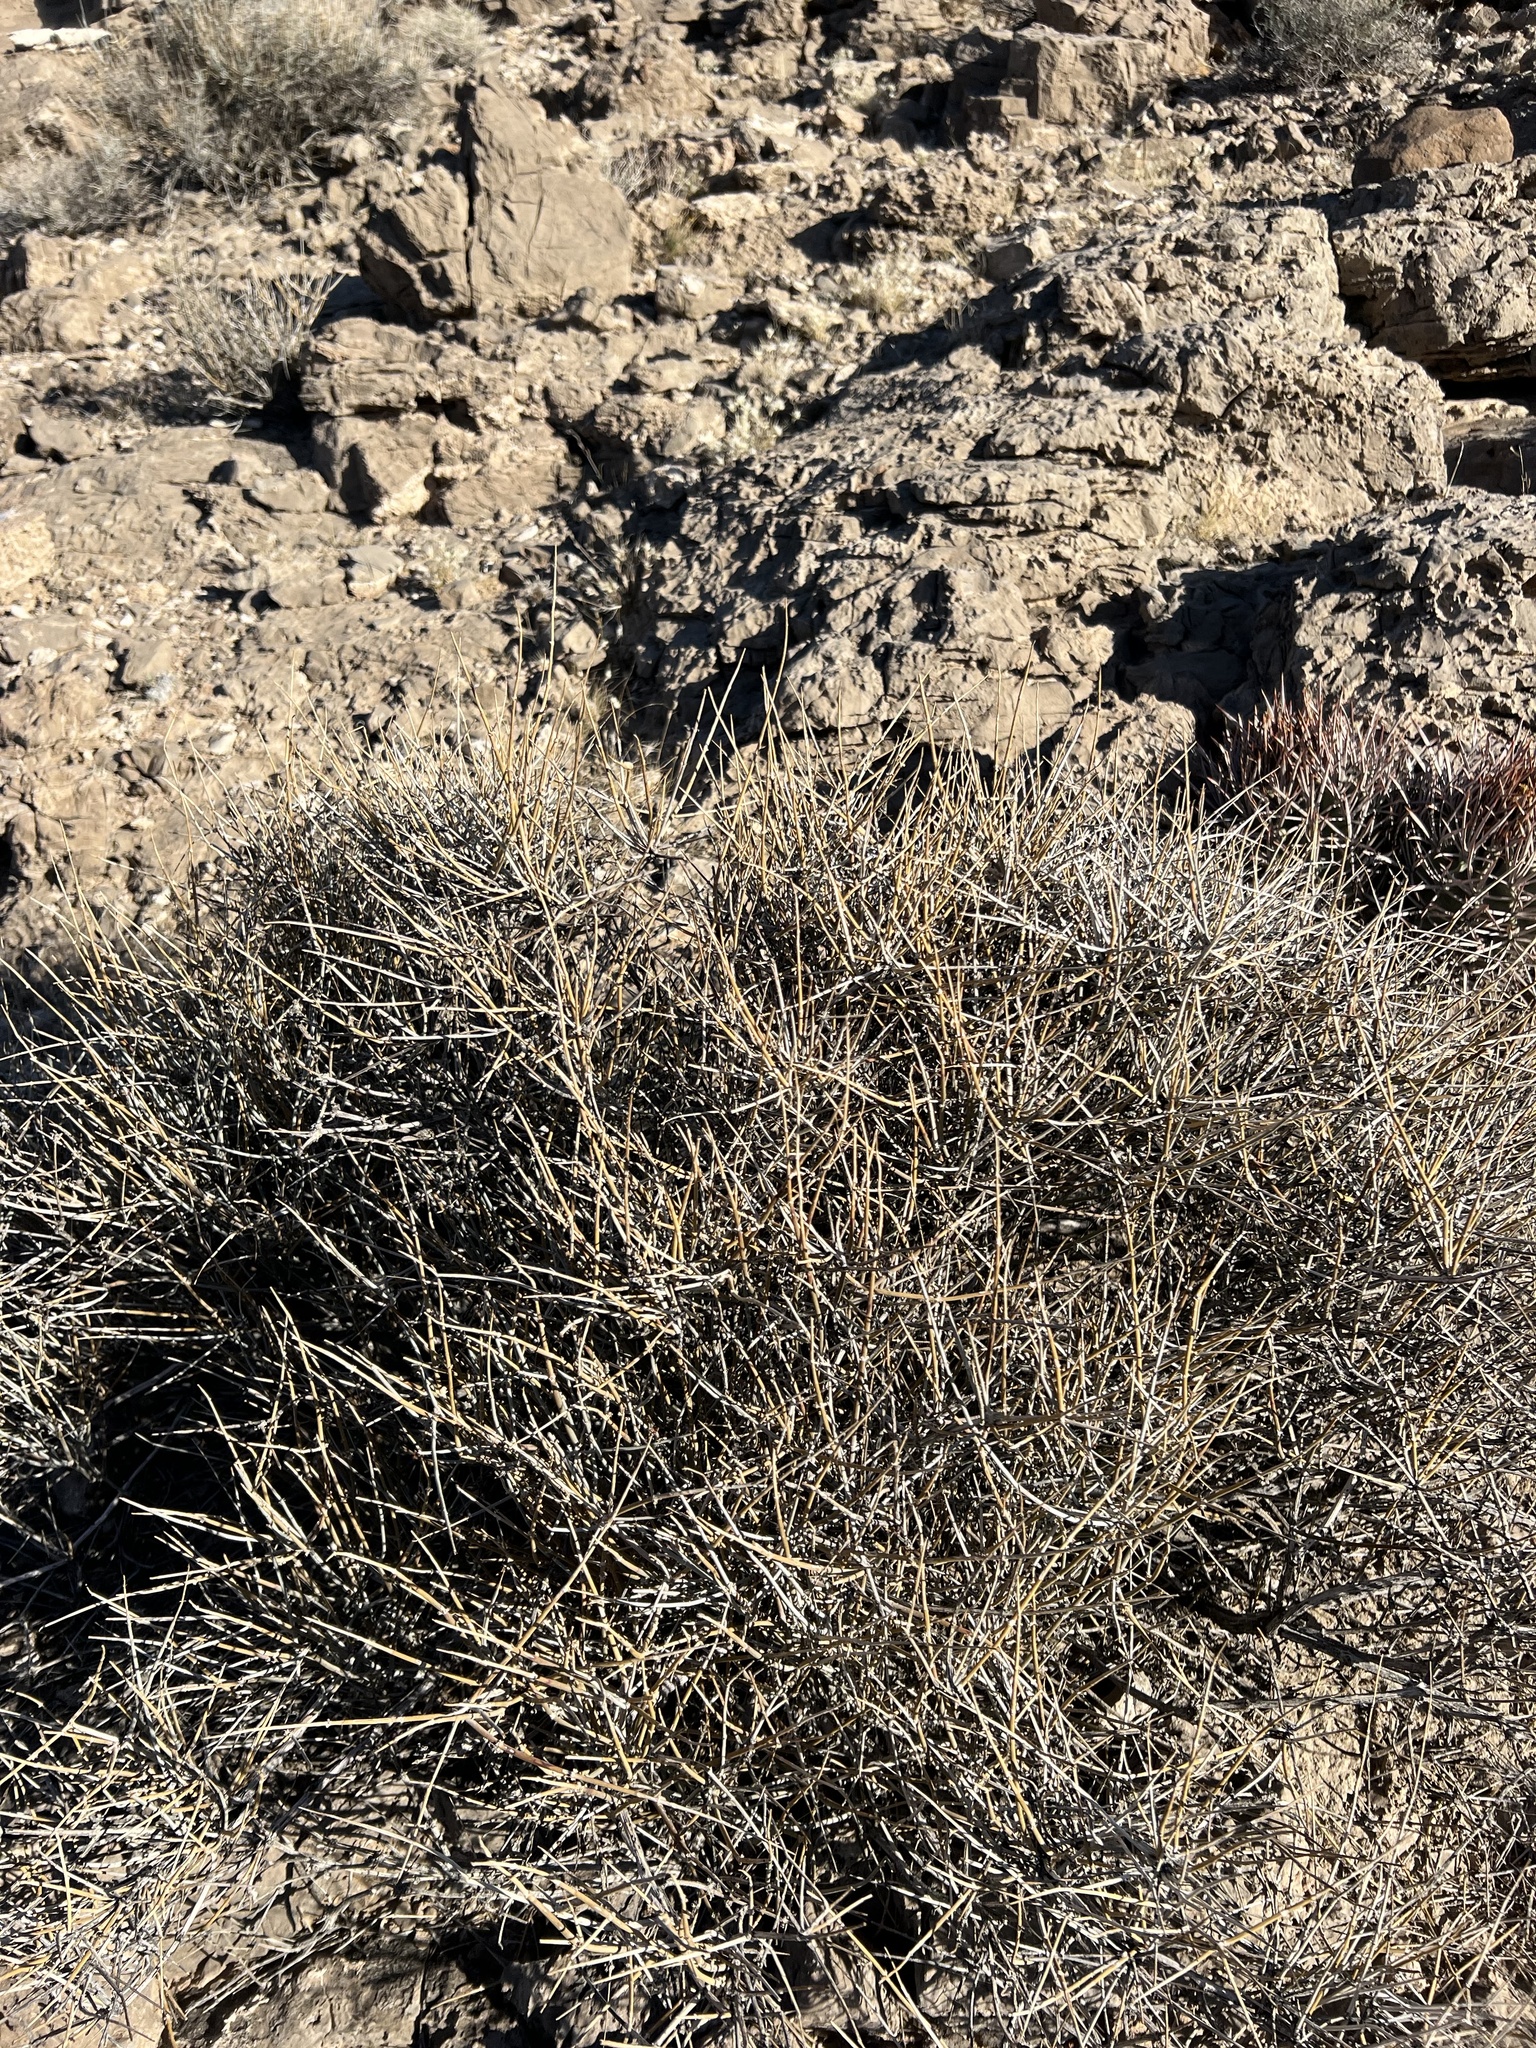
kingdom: Plantae
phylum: Tracheophyta
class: Gnetopsida
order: Ephedrales
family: Ephedraceae
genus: Ephedra
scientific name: Ephedra nevadensis
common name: Gray ephedra
